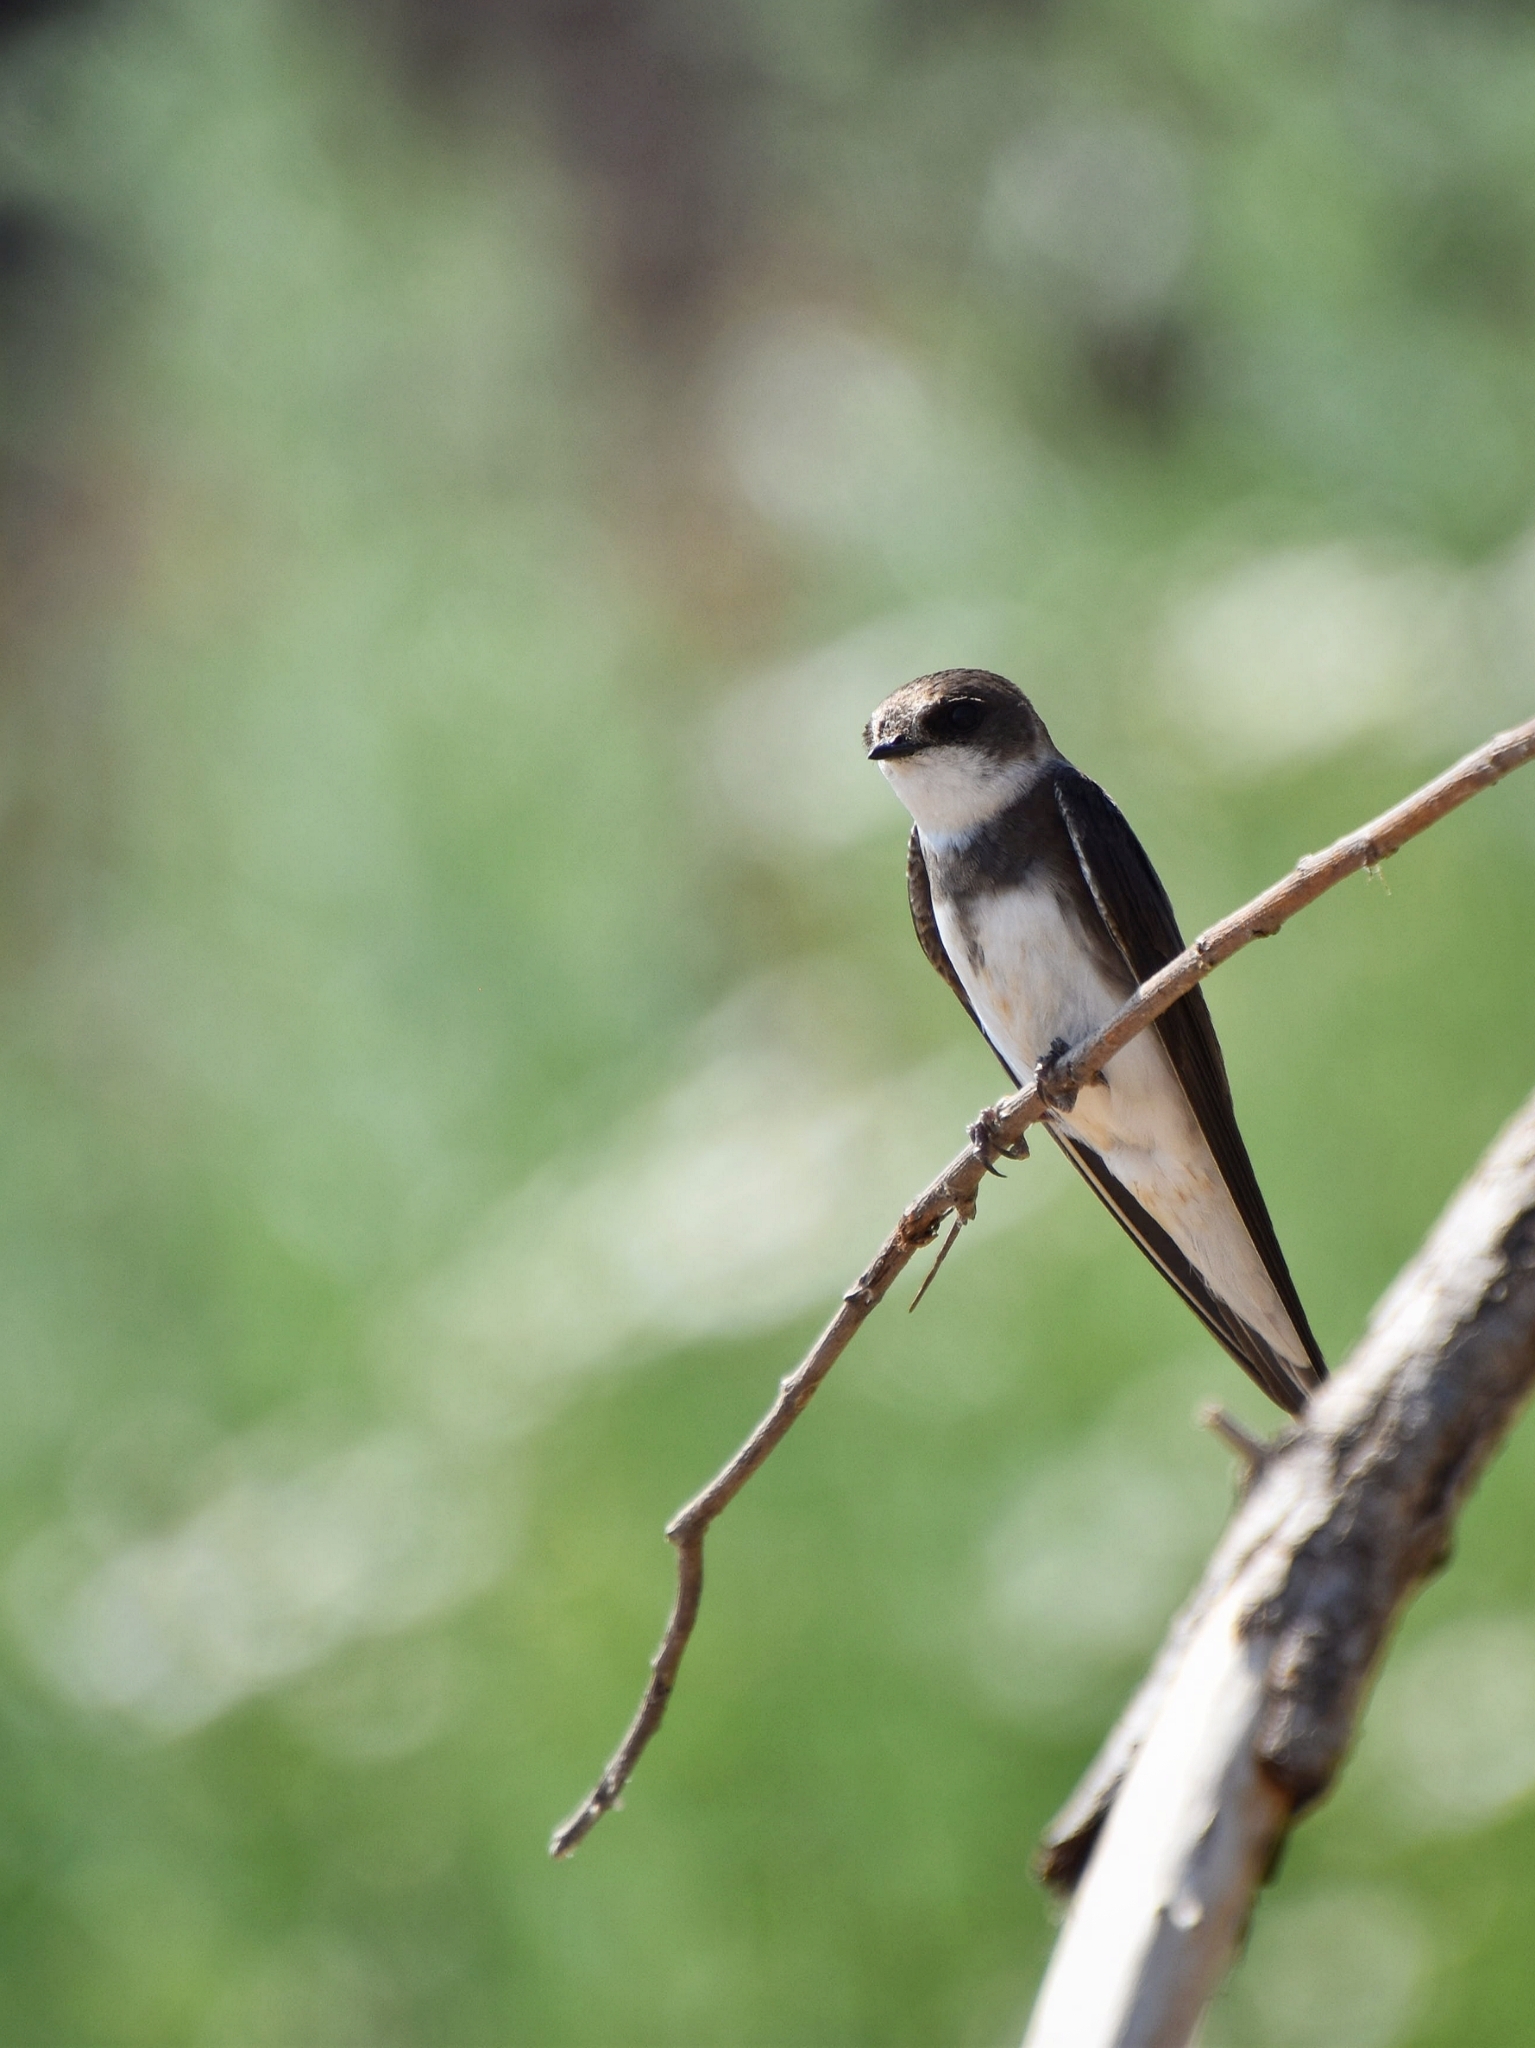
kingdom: Animalia
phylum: Chordata
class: Aves
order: Passeriformes
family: Hirundinidae
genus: Riparia
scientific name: Riparia riparia
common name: Sand martin
